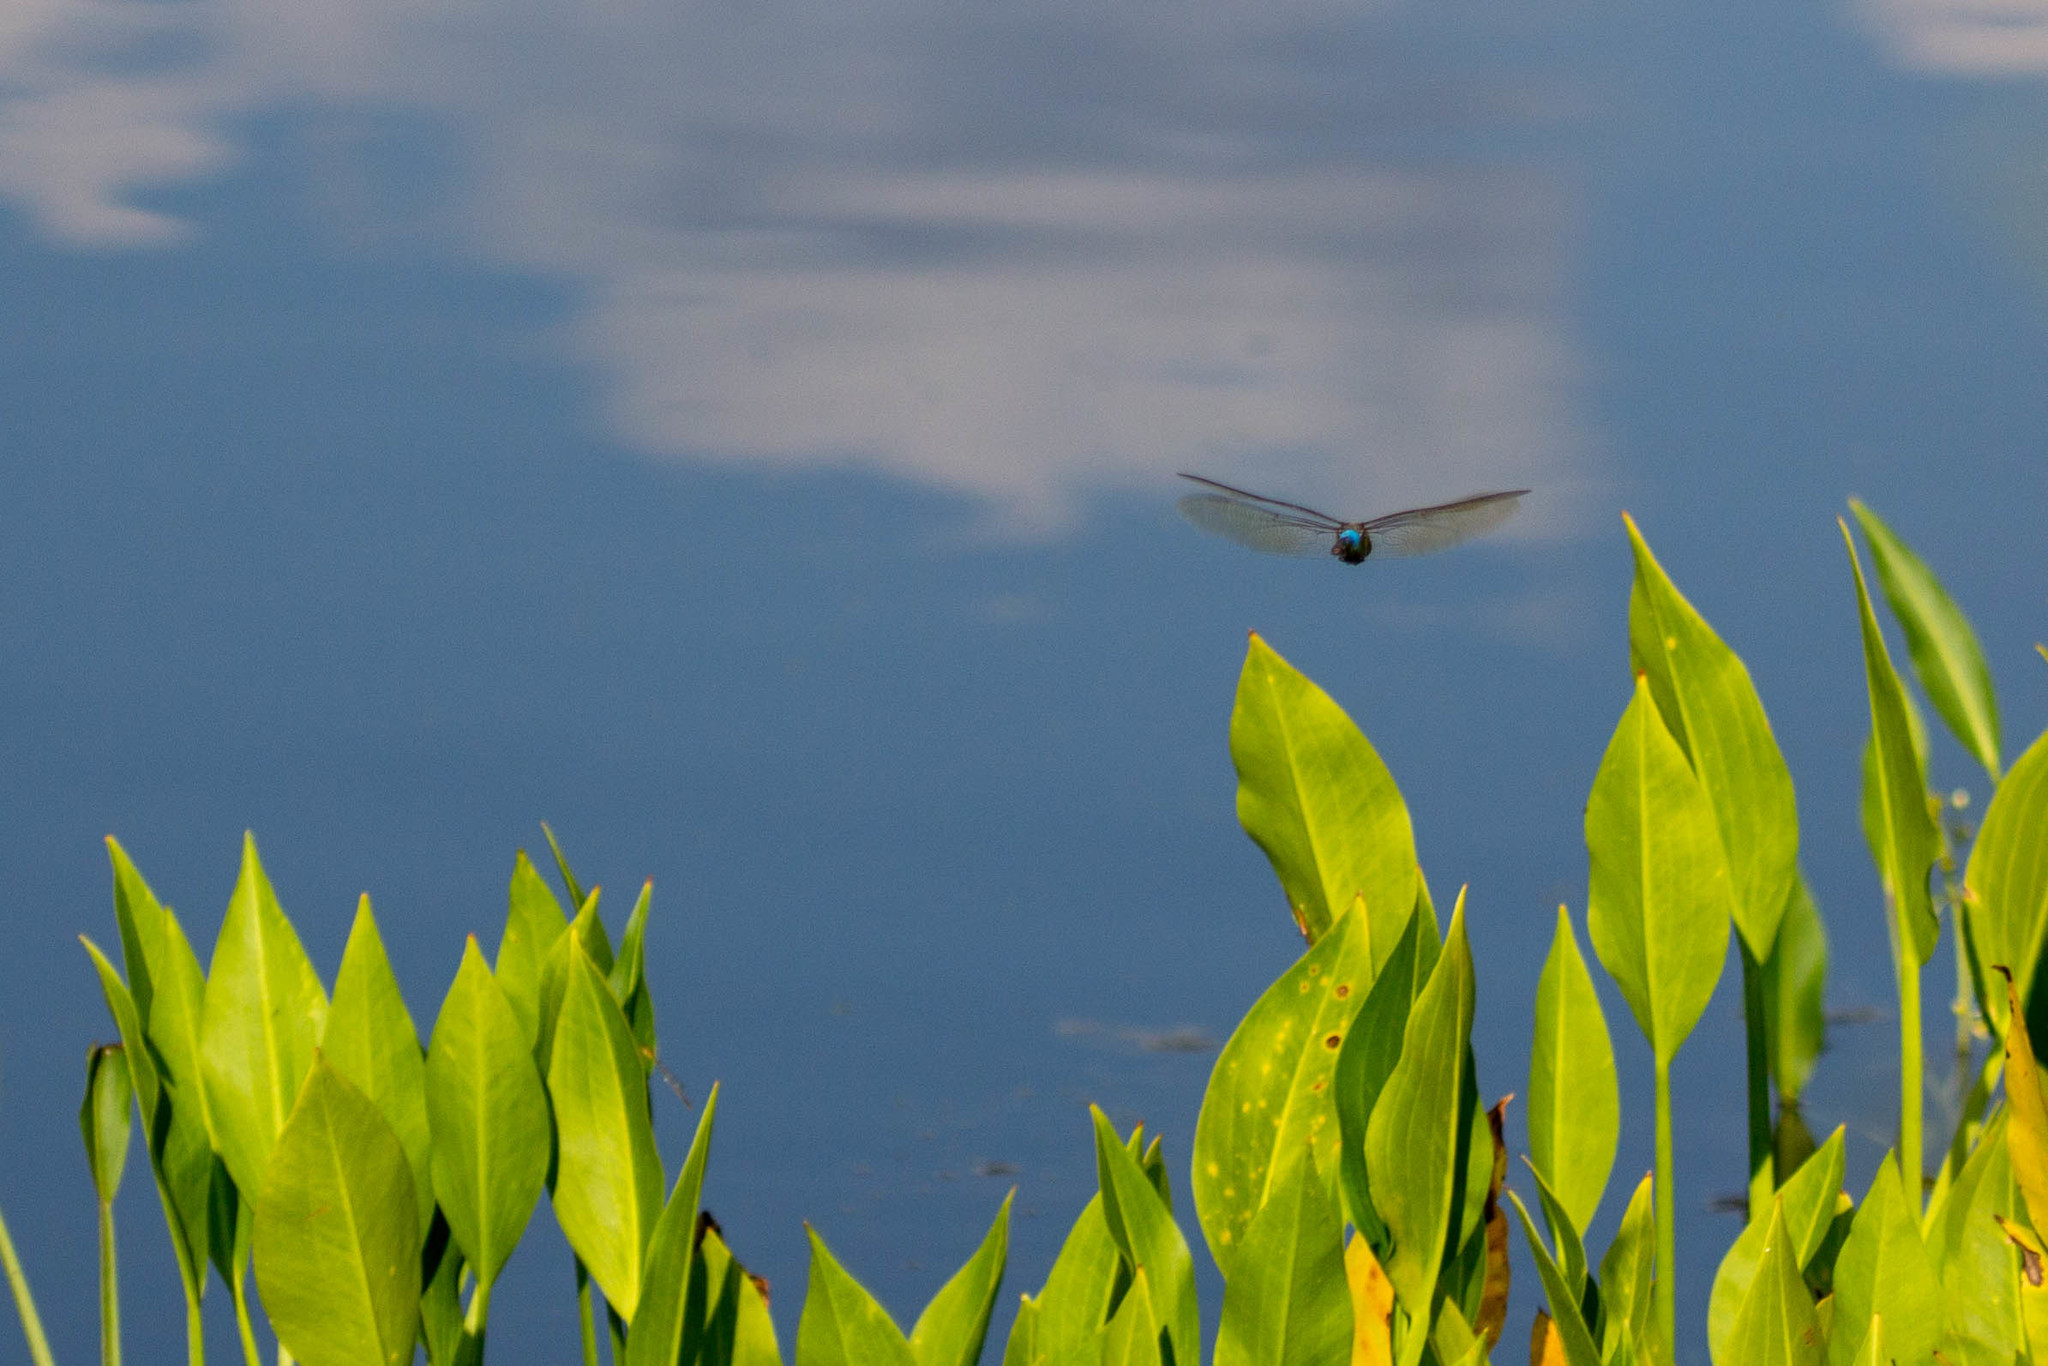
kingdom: Animalia
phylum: Arthropoda
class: Insecta
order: Odonata
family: Aeshnidae
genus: Anax
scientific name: Anax junius
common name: Common green darner
